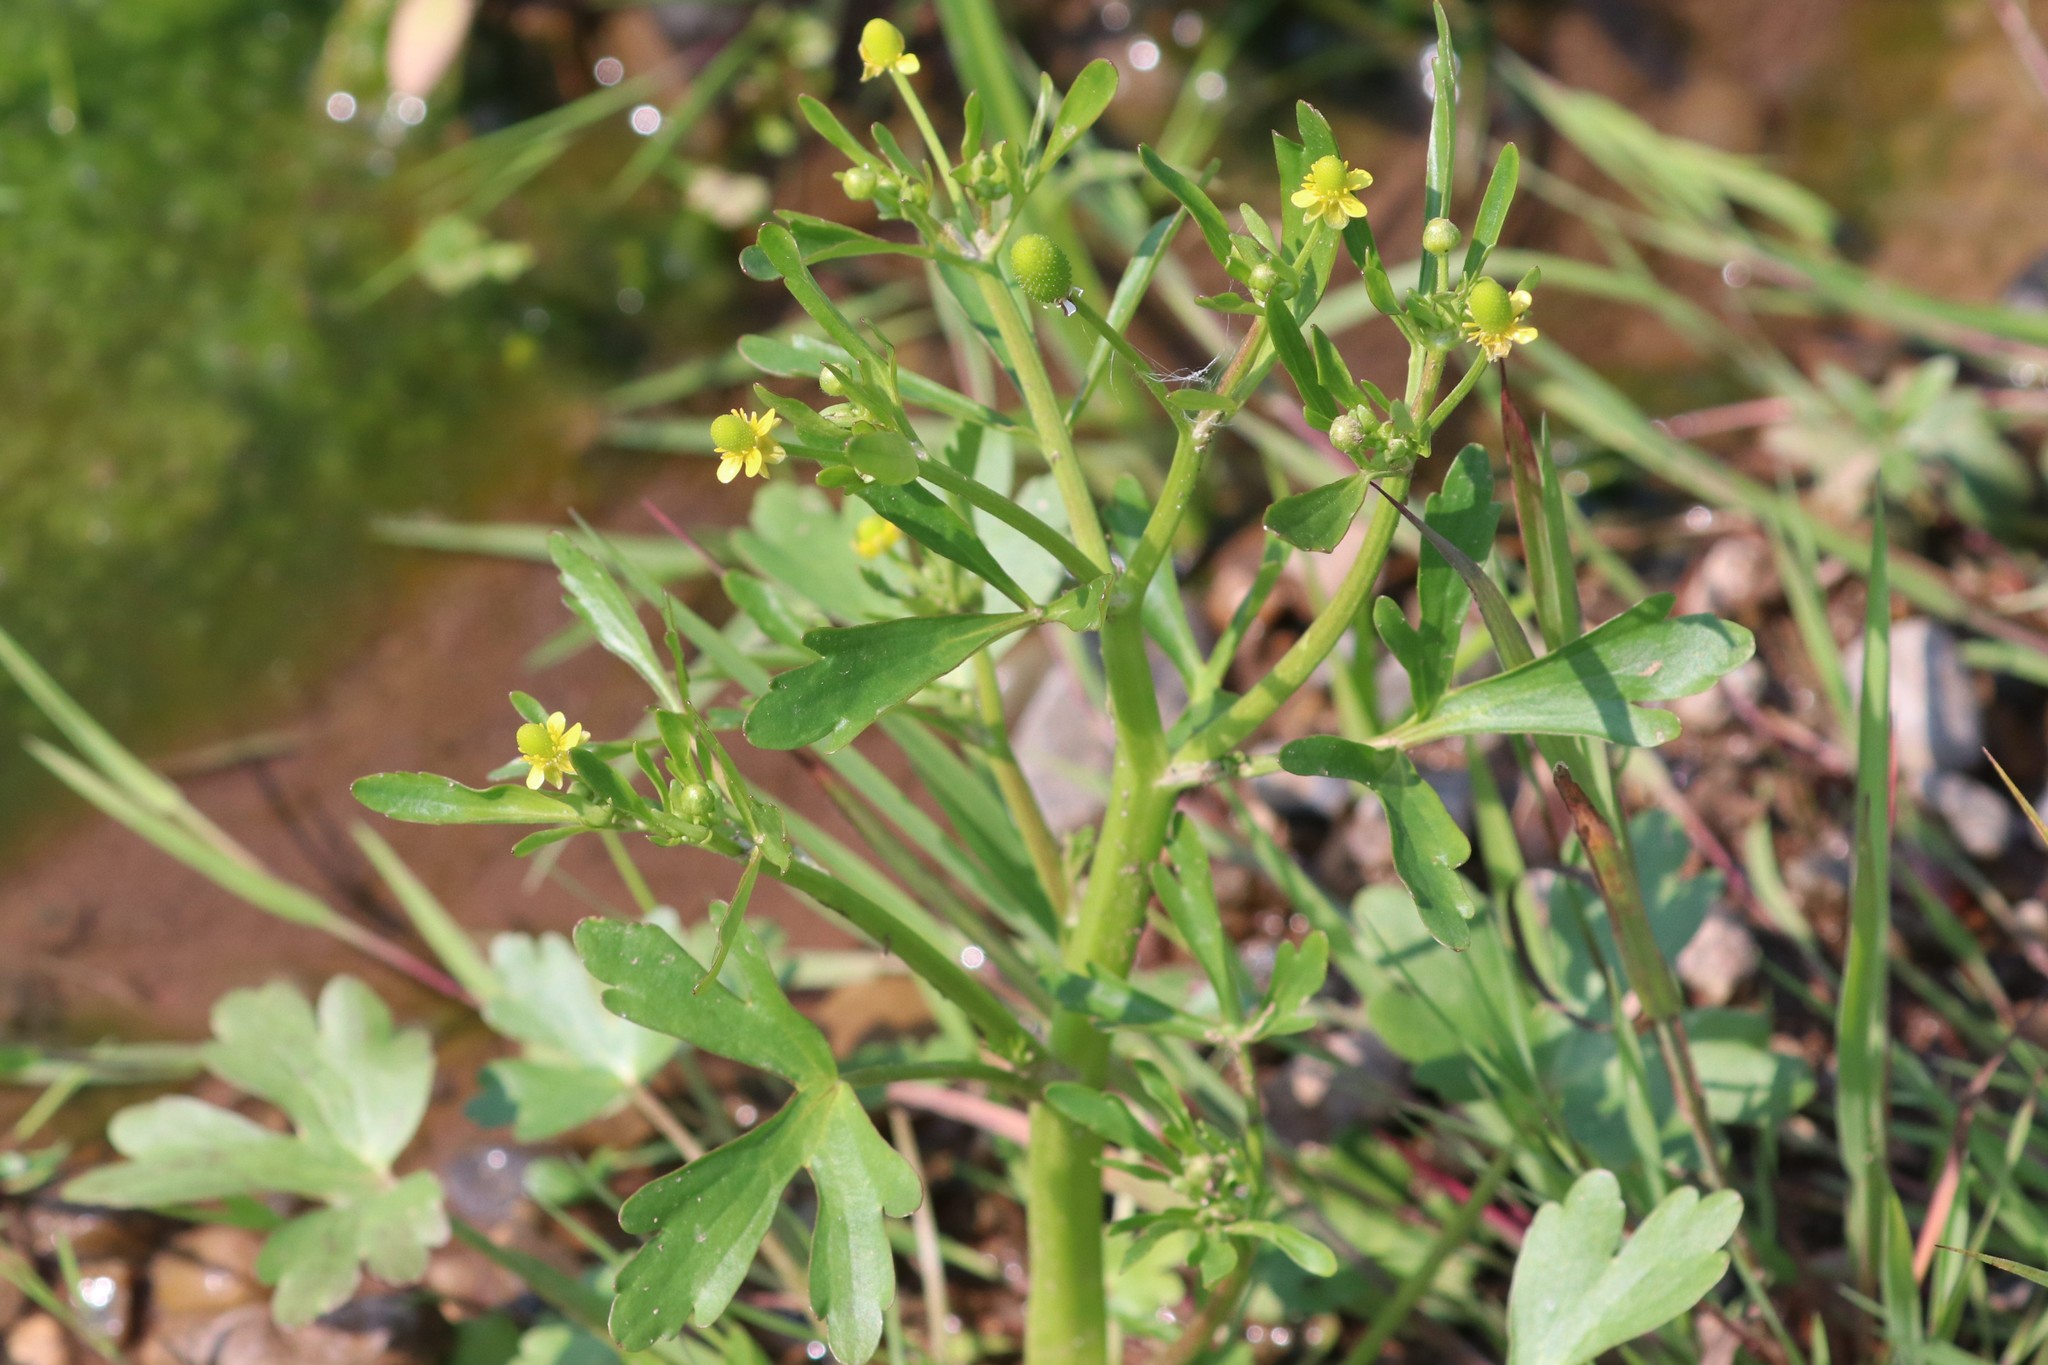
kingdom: Plantae
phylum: Tracheophyta
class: Magnoliopsida
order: Ranunculales
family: Ranunculaceae
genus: Ranunculus
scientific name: Ranunculus sceleratus
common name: Celery-leaved buttercup
